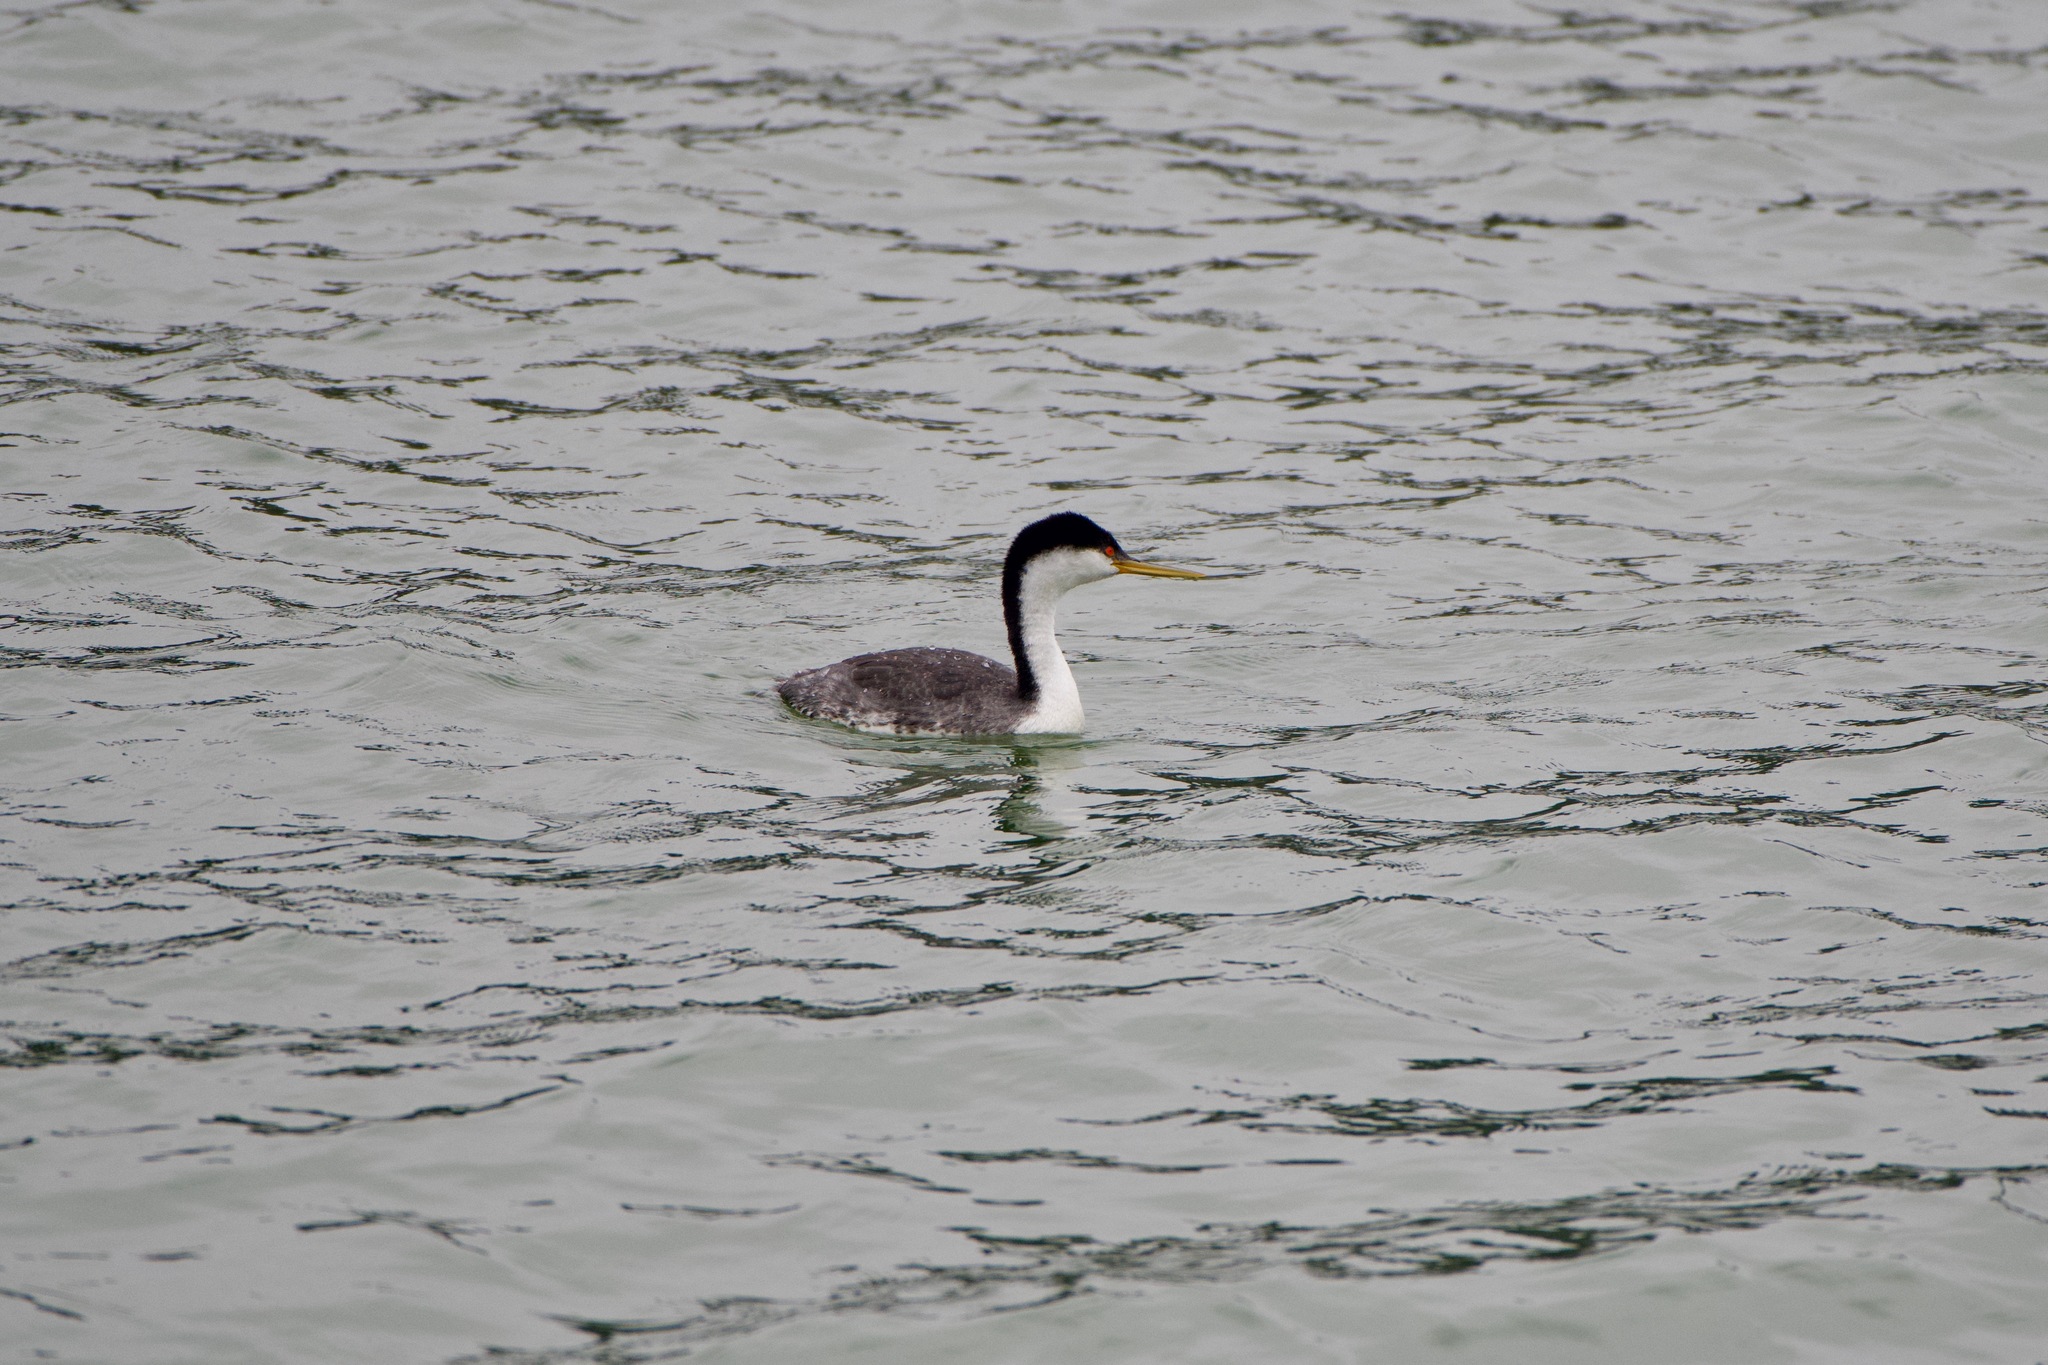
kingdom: Animalia
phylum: Chordata
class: Aves
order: Podicipediformes
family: Podicipedidae
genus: Aechmophorus
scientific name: Aechmophorus occidentalis
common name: Western grebe
